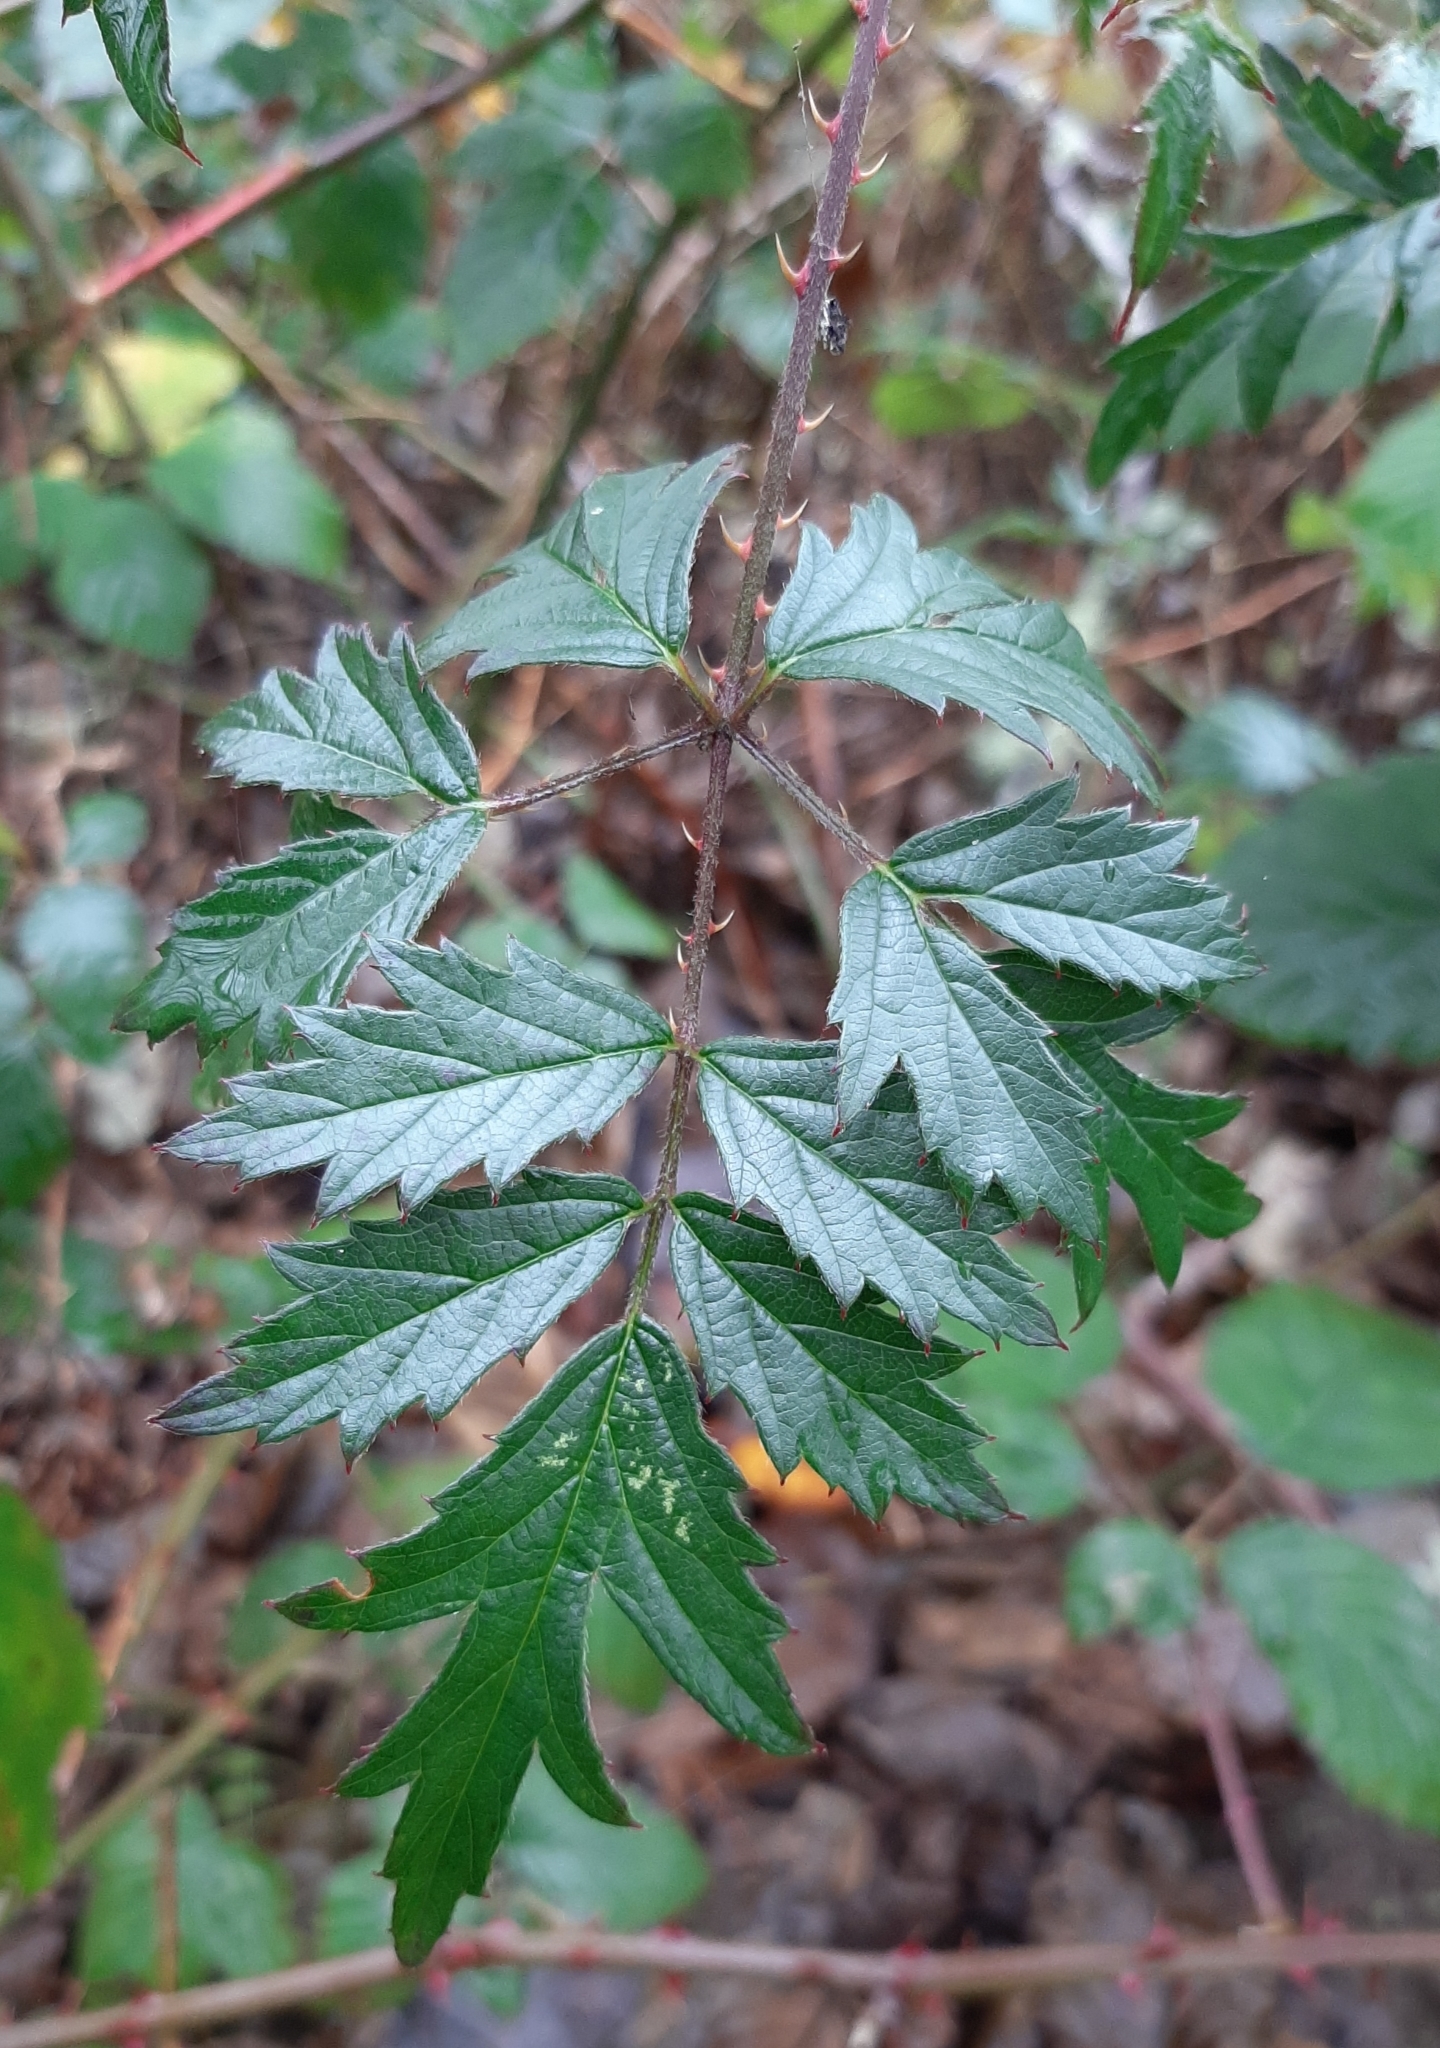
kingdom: Plantae
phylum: Tracheophyta
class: Magnoliopsida
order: Rosales
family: Rosaceae
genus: Rubus
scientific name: Rubus laciniatus
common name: Evergreen blackberry
